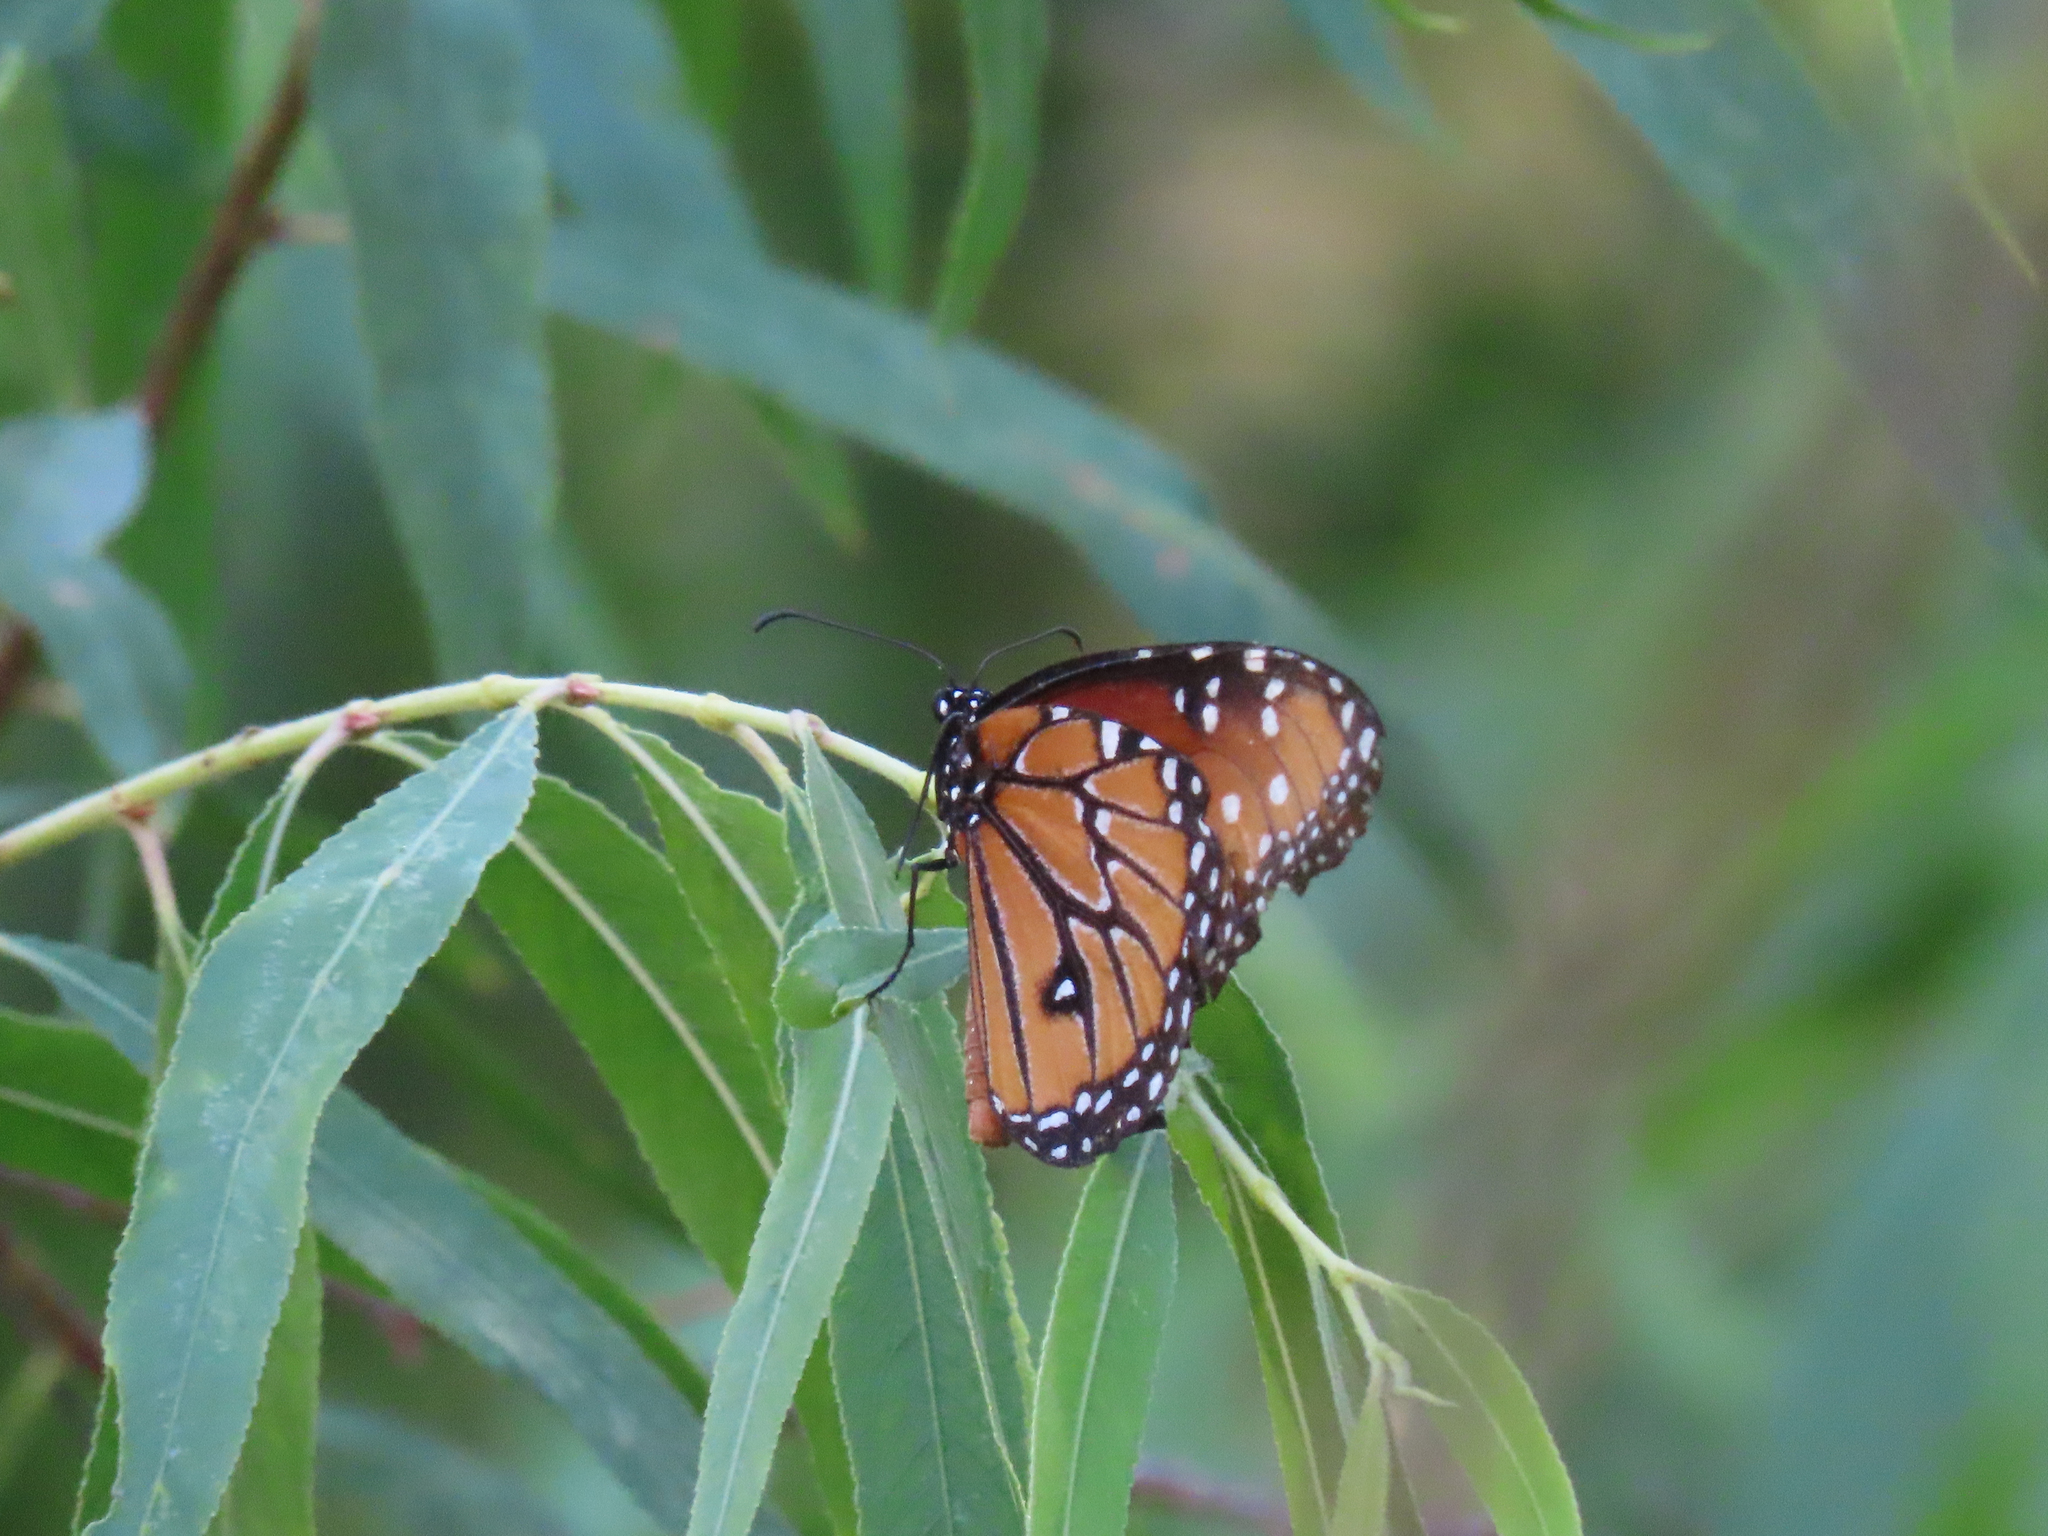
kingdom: Animalia
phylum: Arthropoda
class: Insecta
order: Lepidoptera
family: Nymphalidae
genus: Danaus
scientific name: Danaus gilippus
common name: Queen
